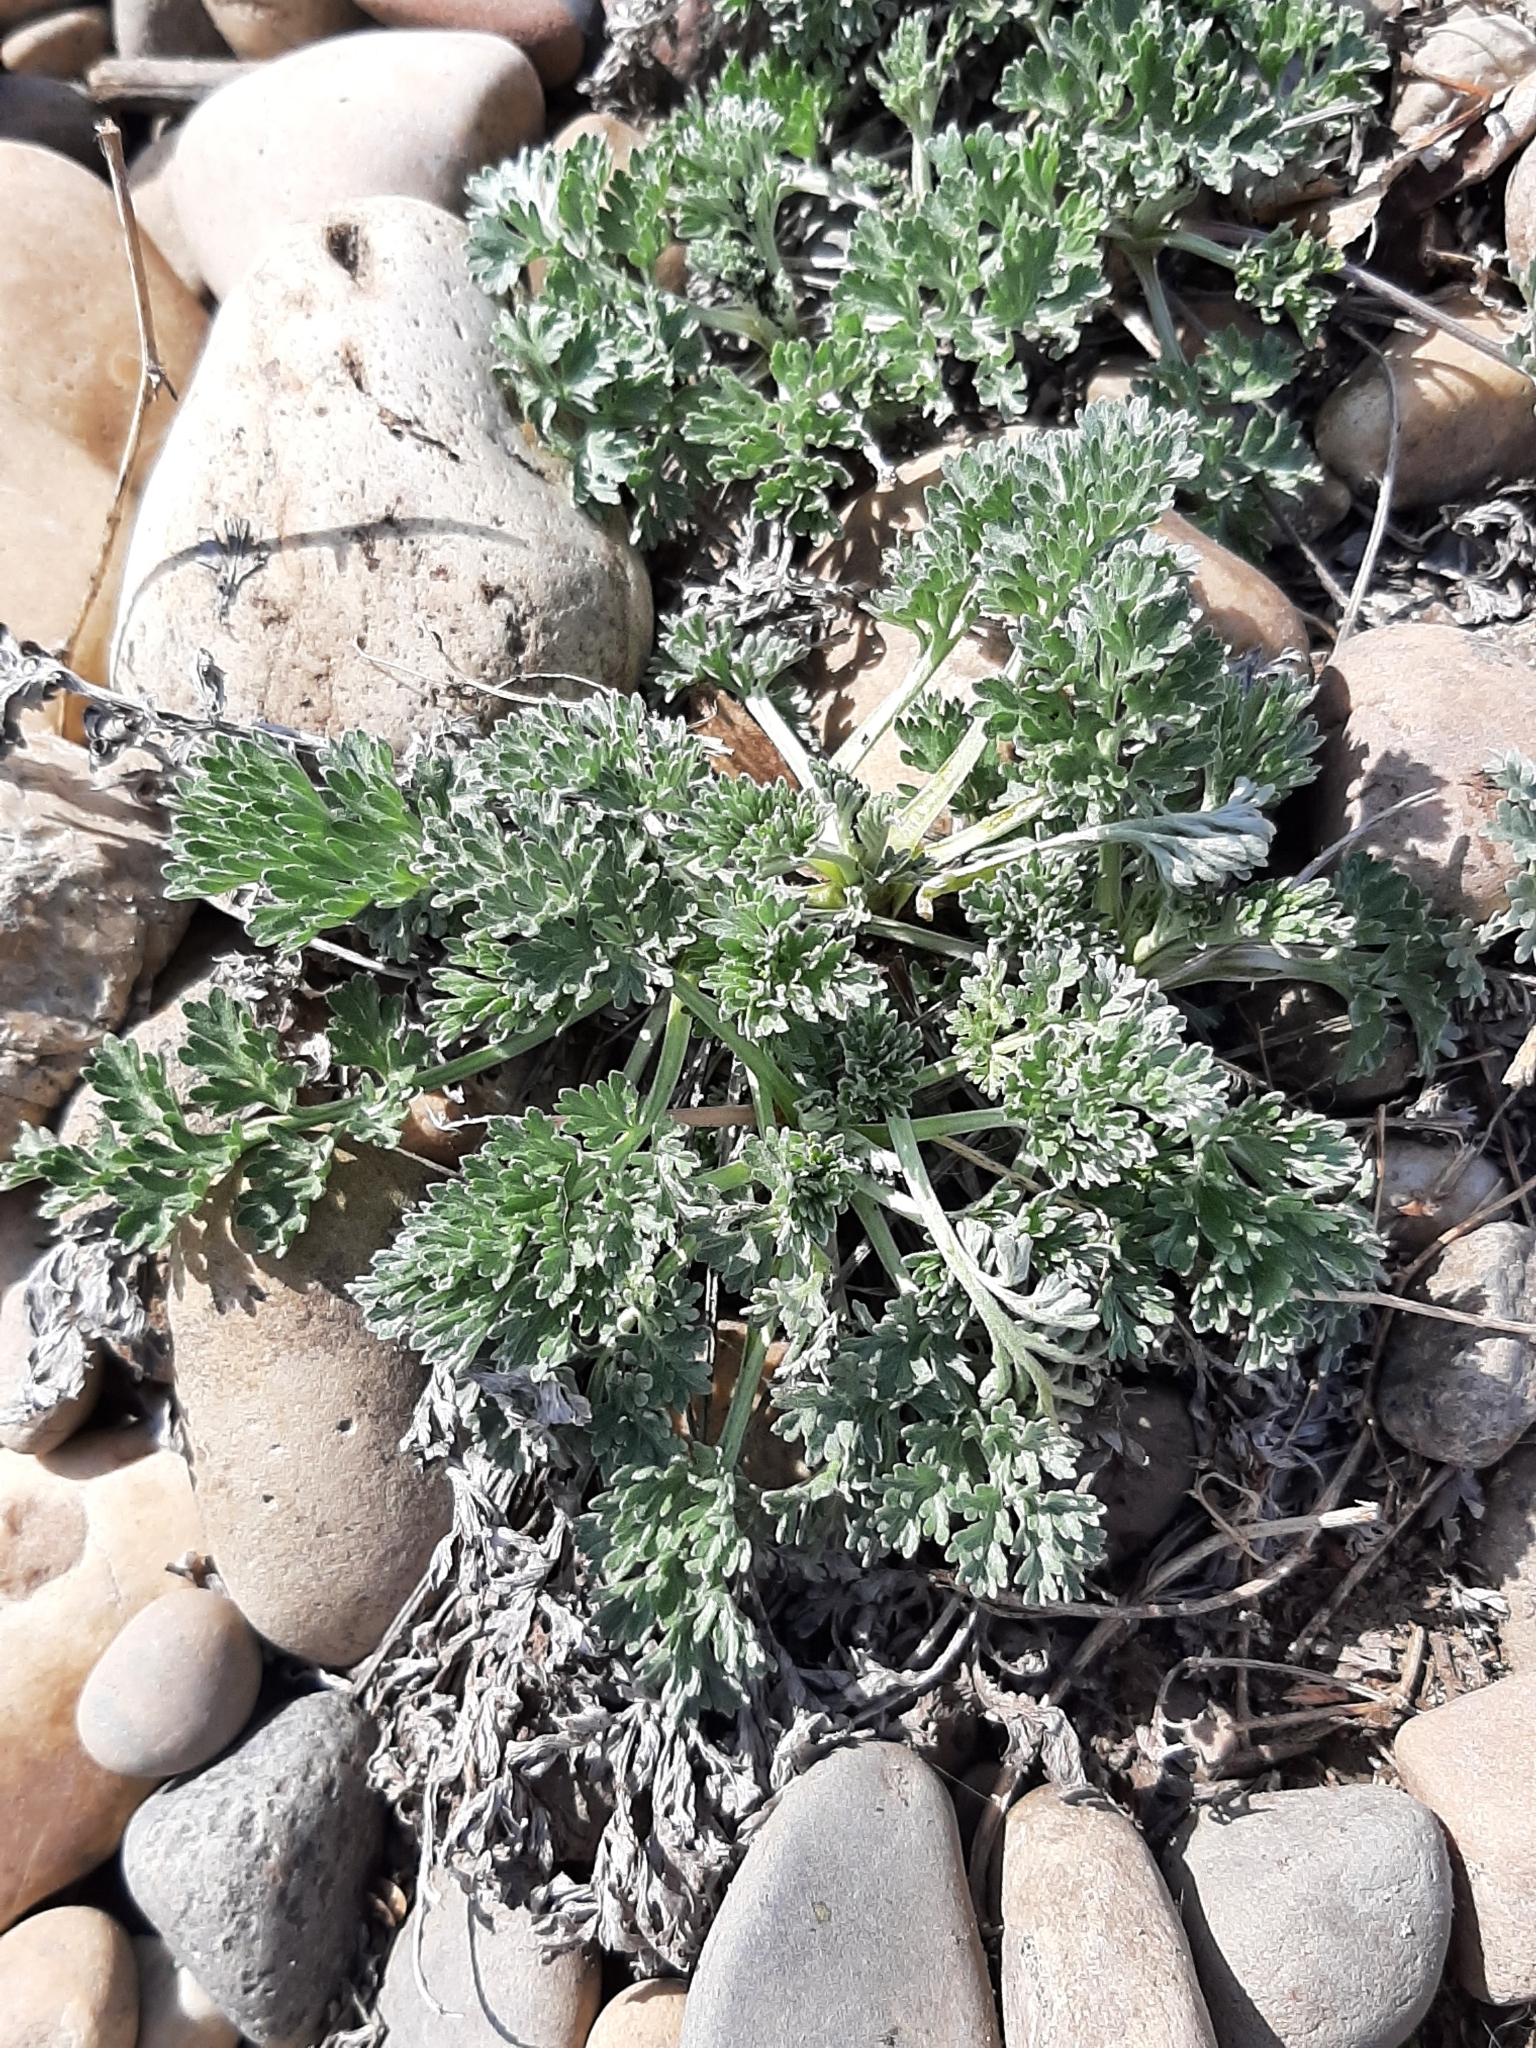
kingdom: Plantae
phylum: Tracheophyta
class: Magnoliopsida
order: Asterales
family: Asteraceae
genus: Artemisia
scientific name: Artemisia absinthium
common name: Wormwood
